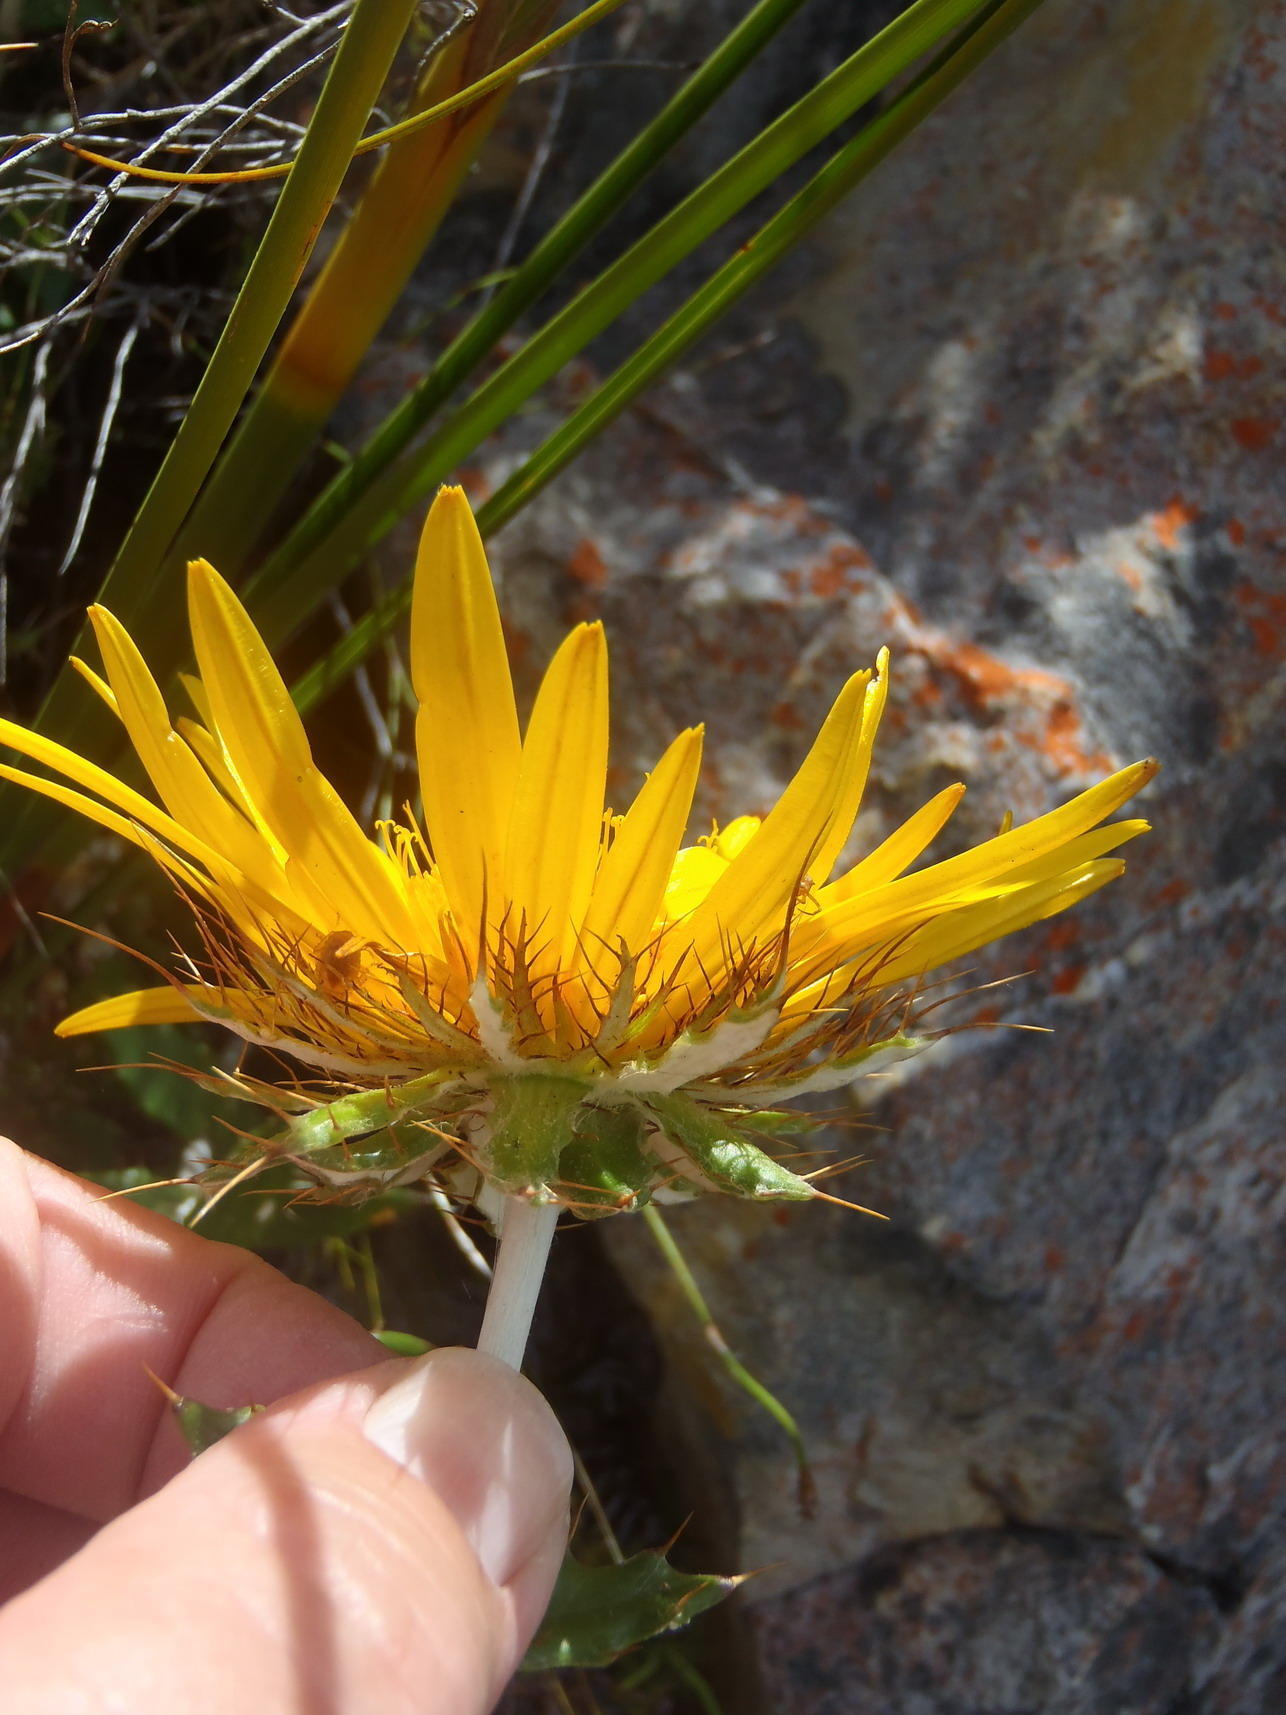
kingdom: Plantae
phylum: Tracheophyta
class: Magnoliopsida
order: Asterales
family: Asteraceae
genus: Berkheya
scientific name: Berkheya barbata
